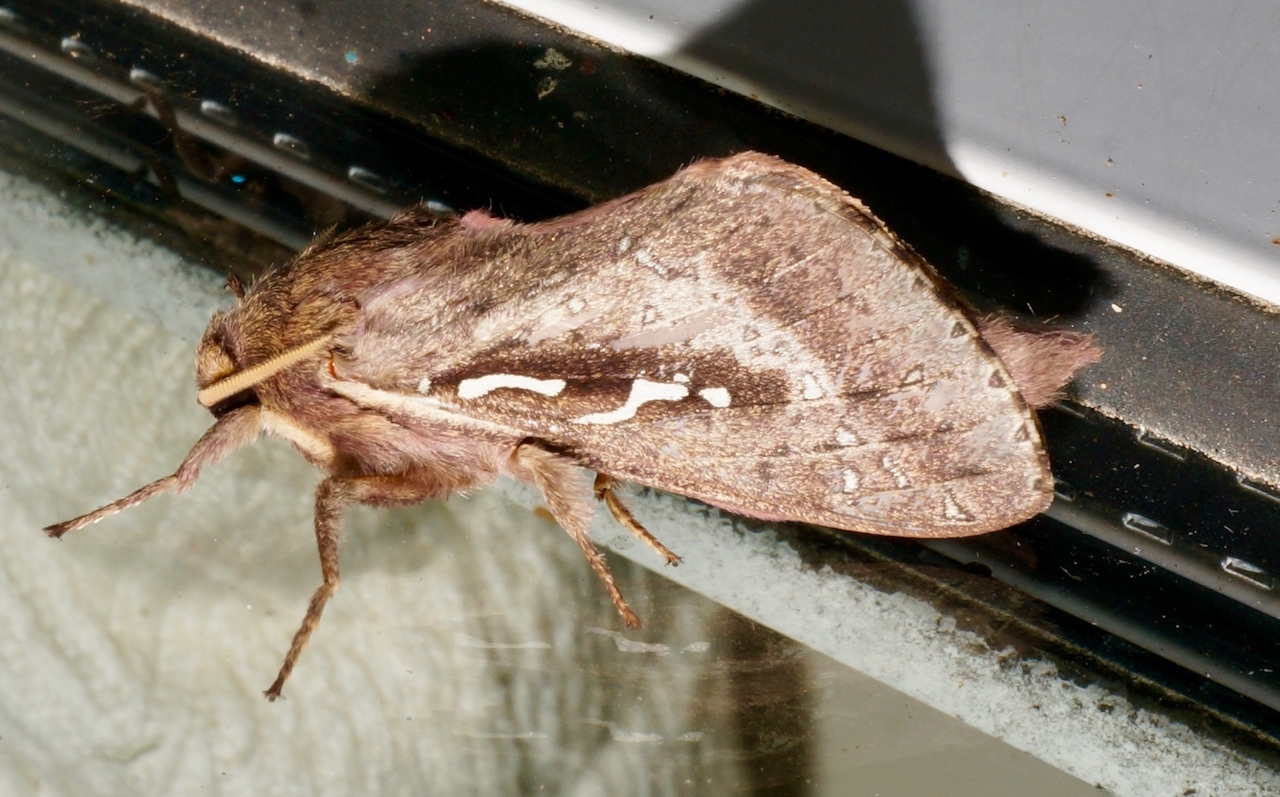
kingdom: Animalia
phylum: Arthropoda
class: Insecta
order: Lepidoptera
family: Hepialidae
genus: Wiseana
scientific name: Wiseana signata
